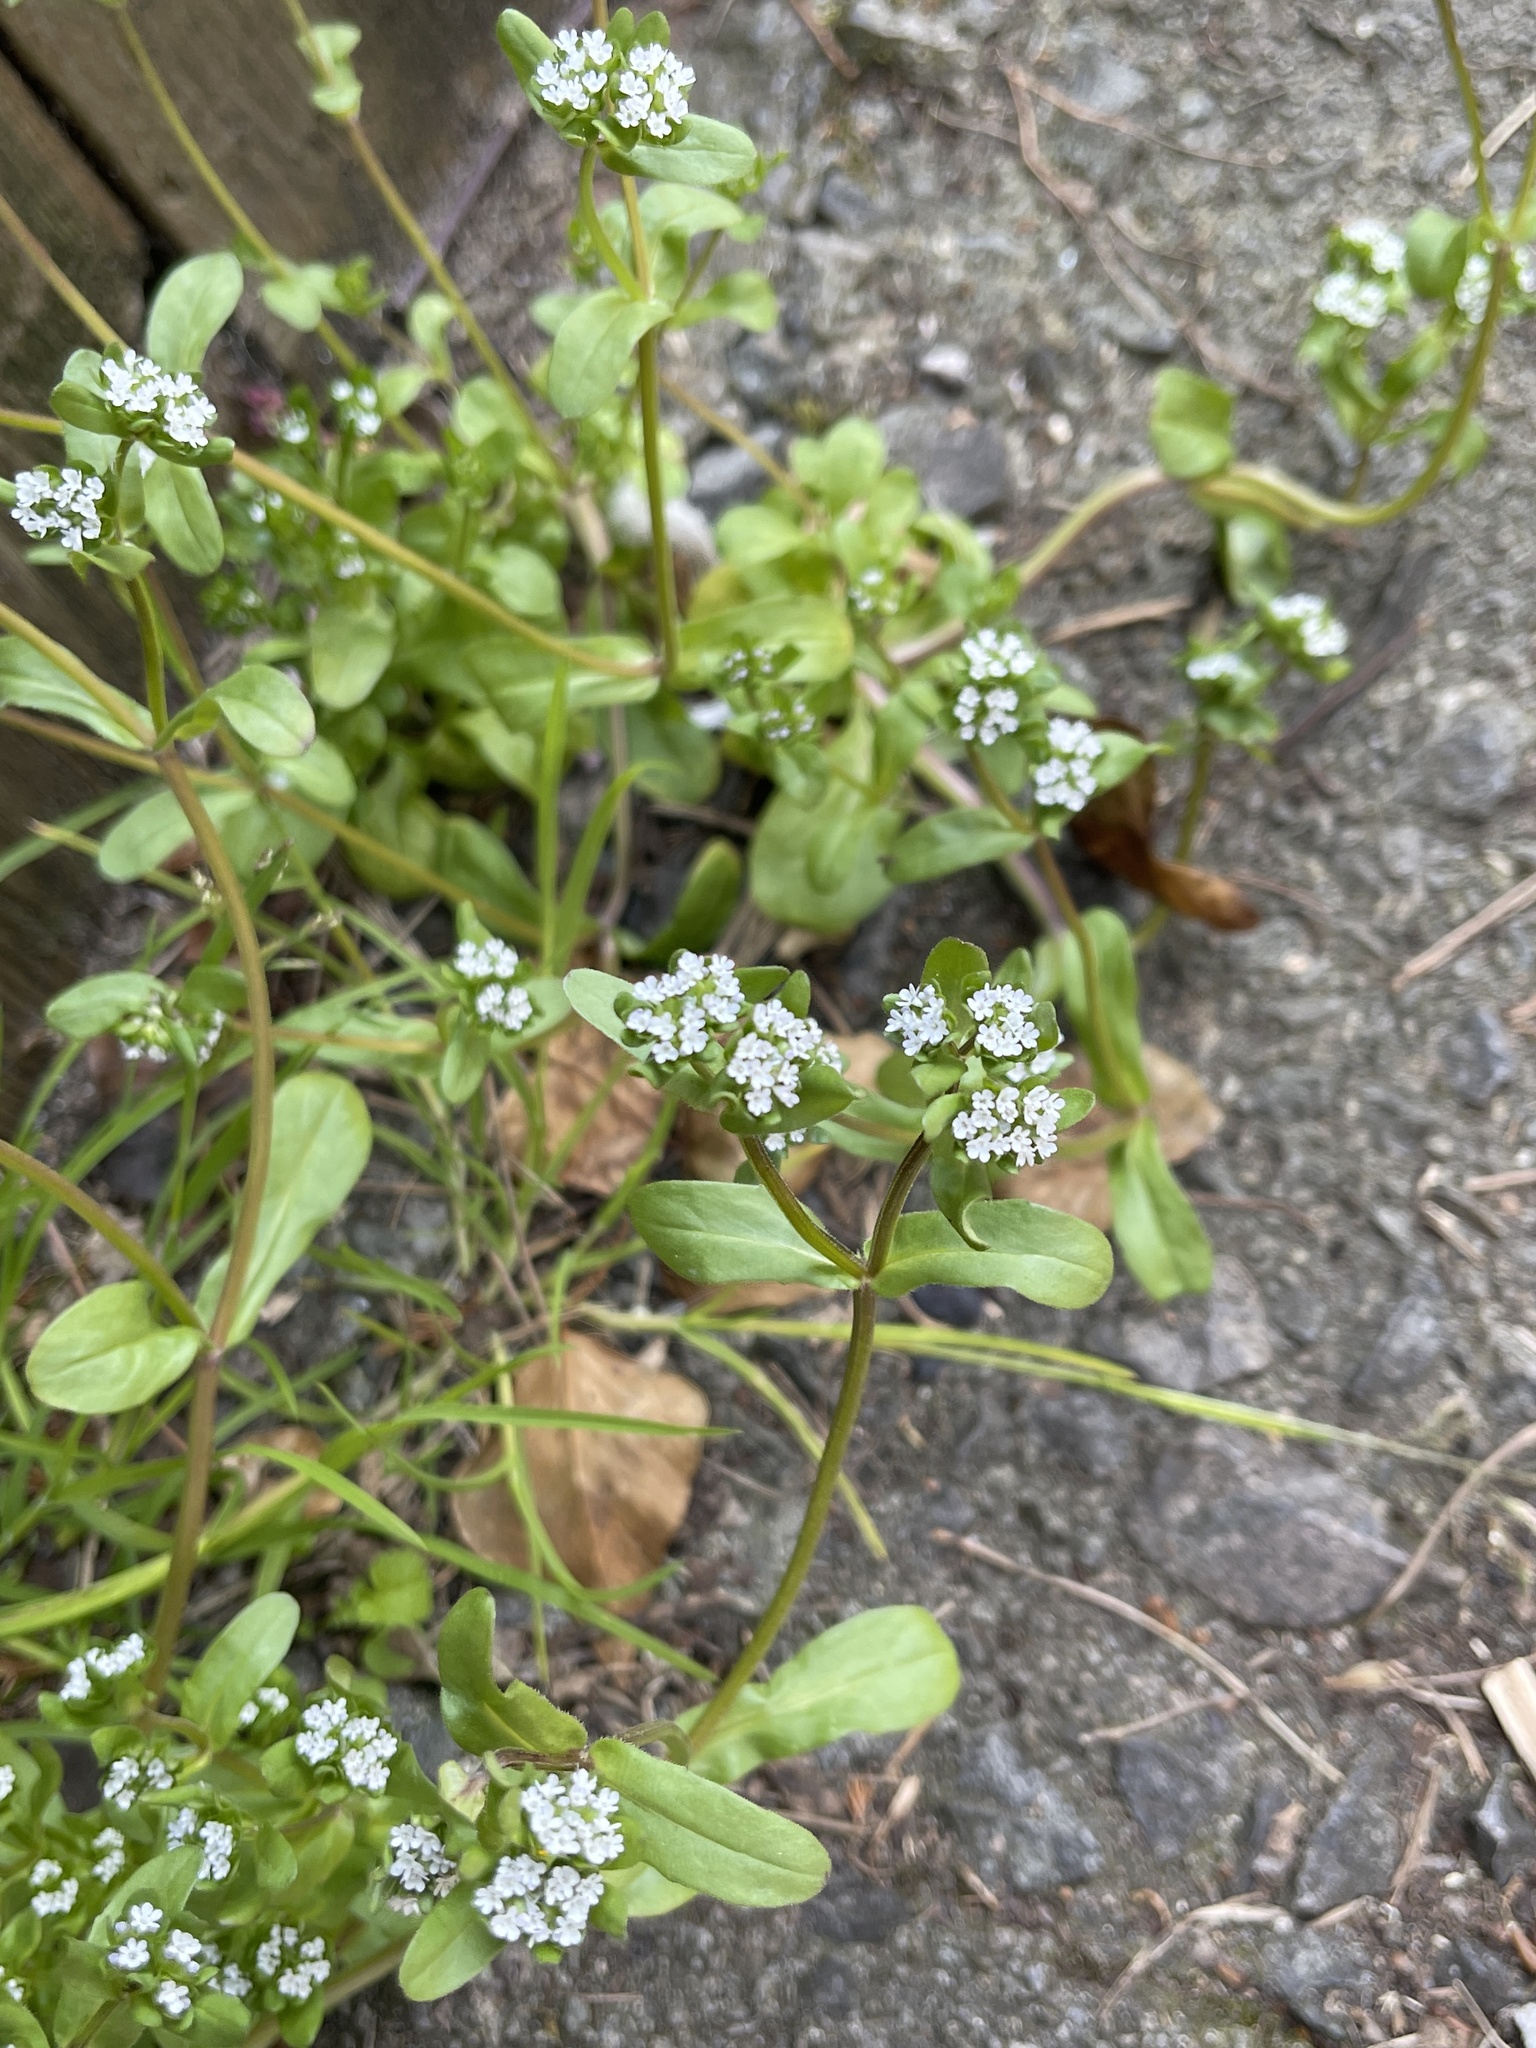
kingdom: Plantae
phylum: Tracheophyta
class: Magnoliopsida
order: Dipsacales
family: Caprifoliaceae
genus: Valerianella
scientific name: Valerianella locusta
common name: Common cornsalad
